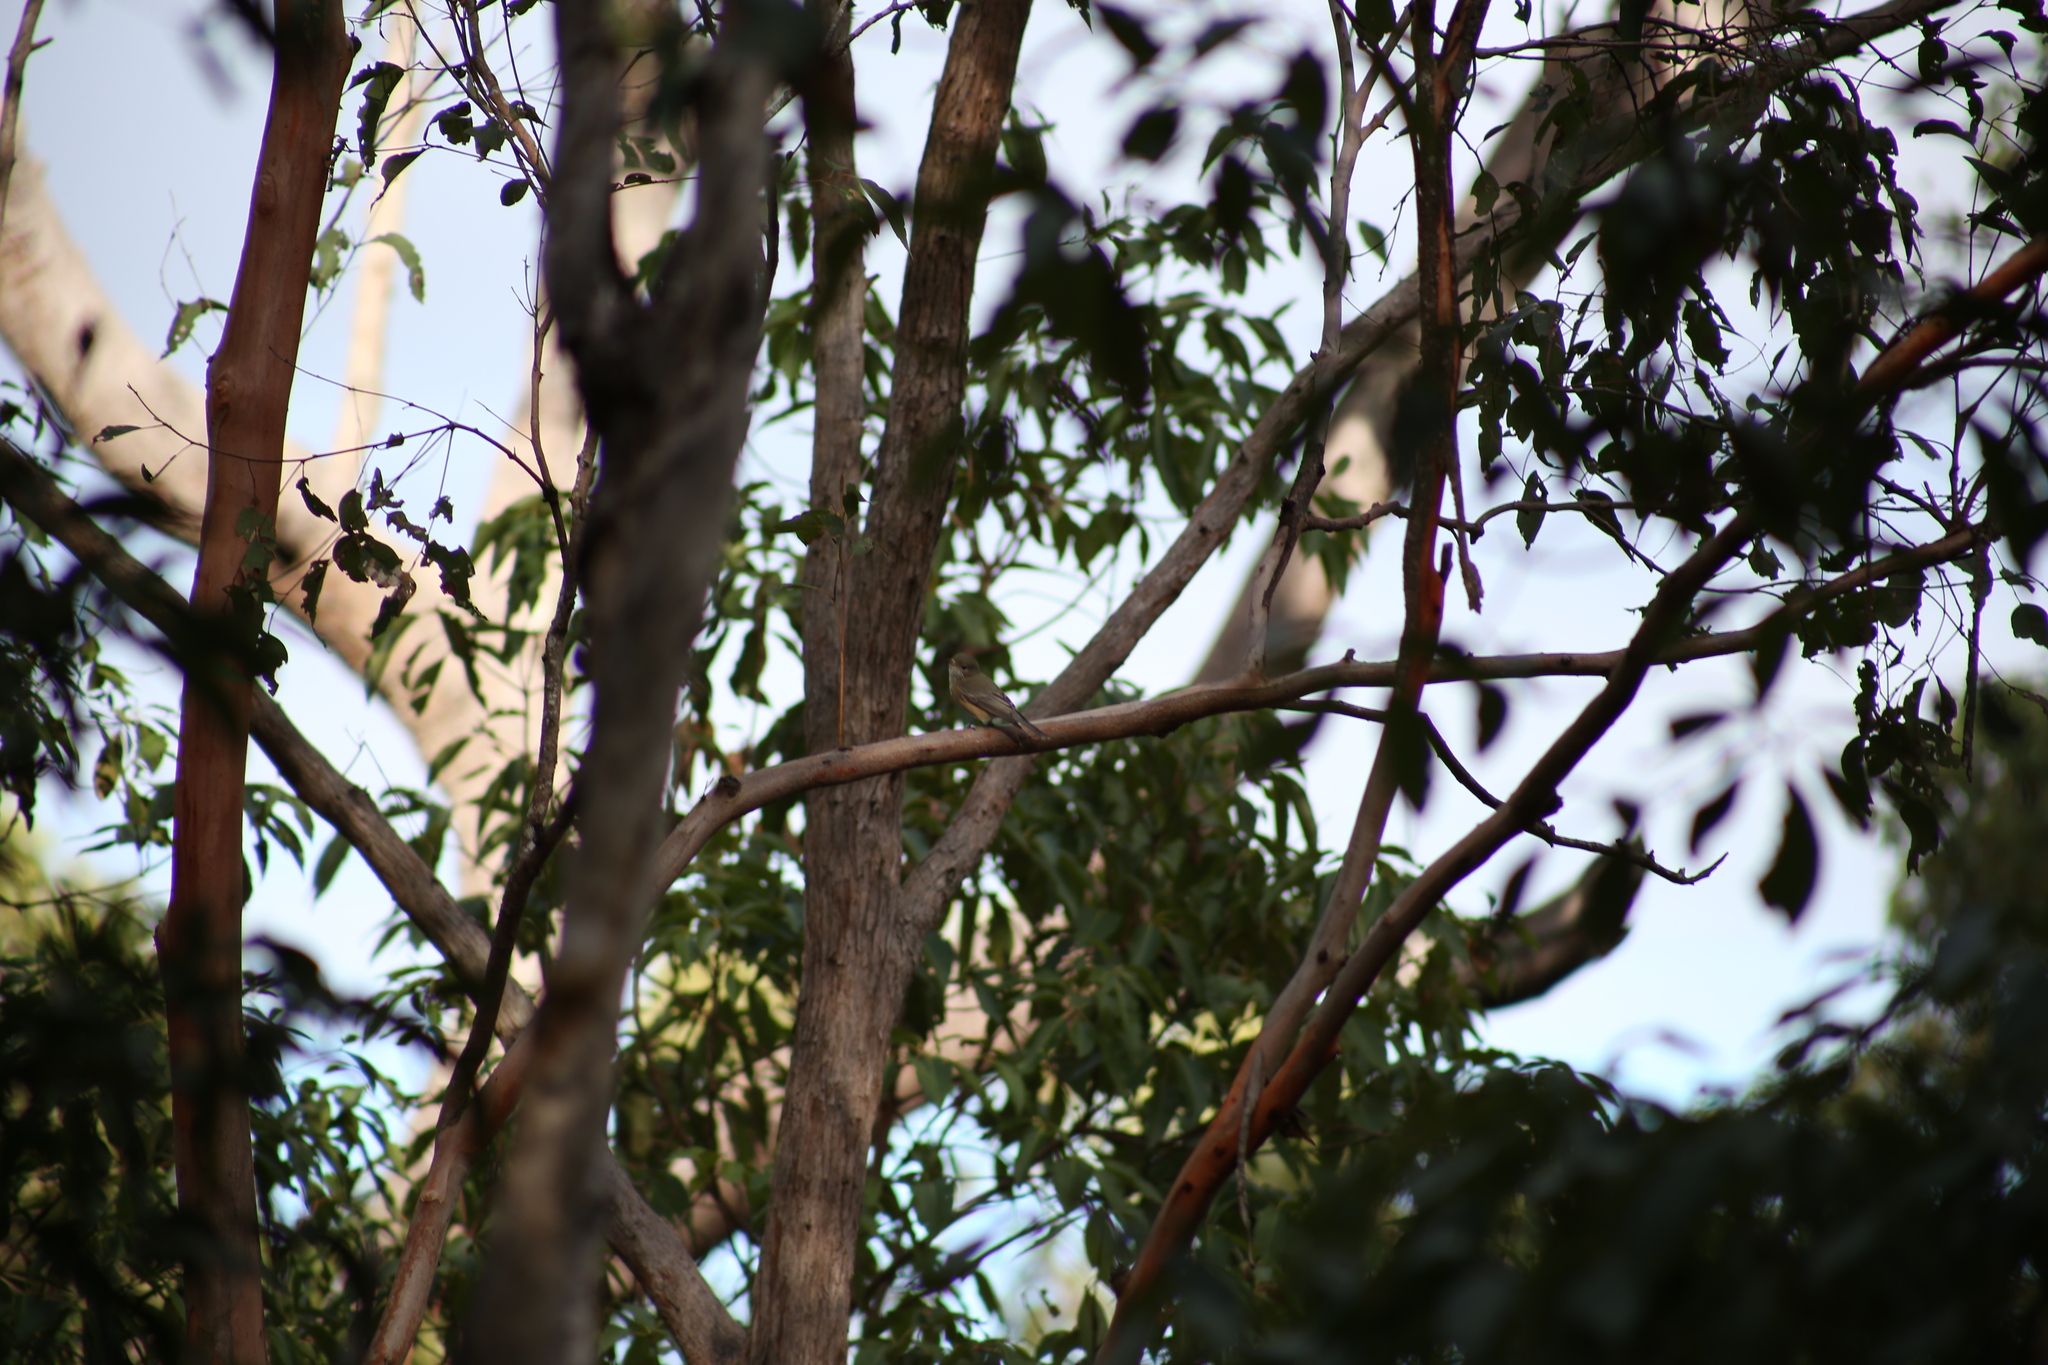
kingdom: Animalia
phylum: Chordata
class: Aves
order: Passeriformes
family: Pachycephalidae
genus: Pachycephala
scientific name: Pachycephala rufiventris
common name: Rufous whistler
